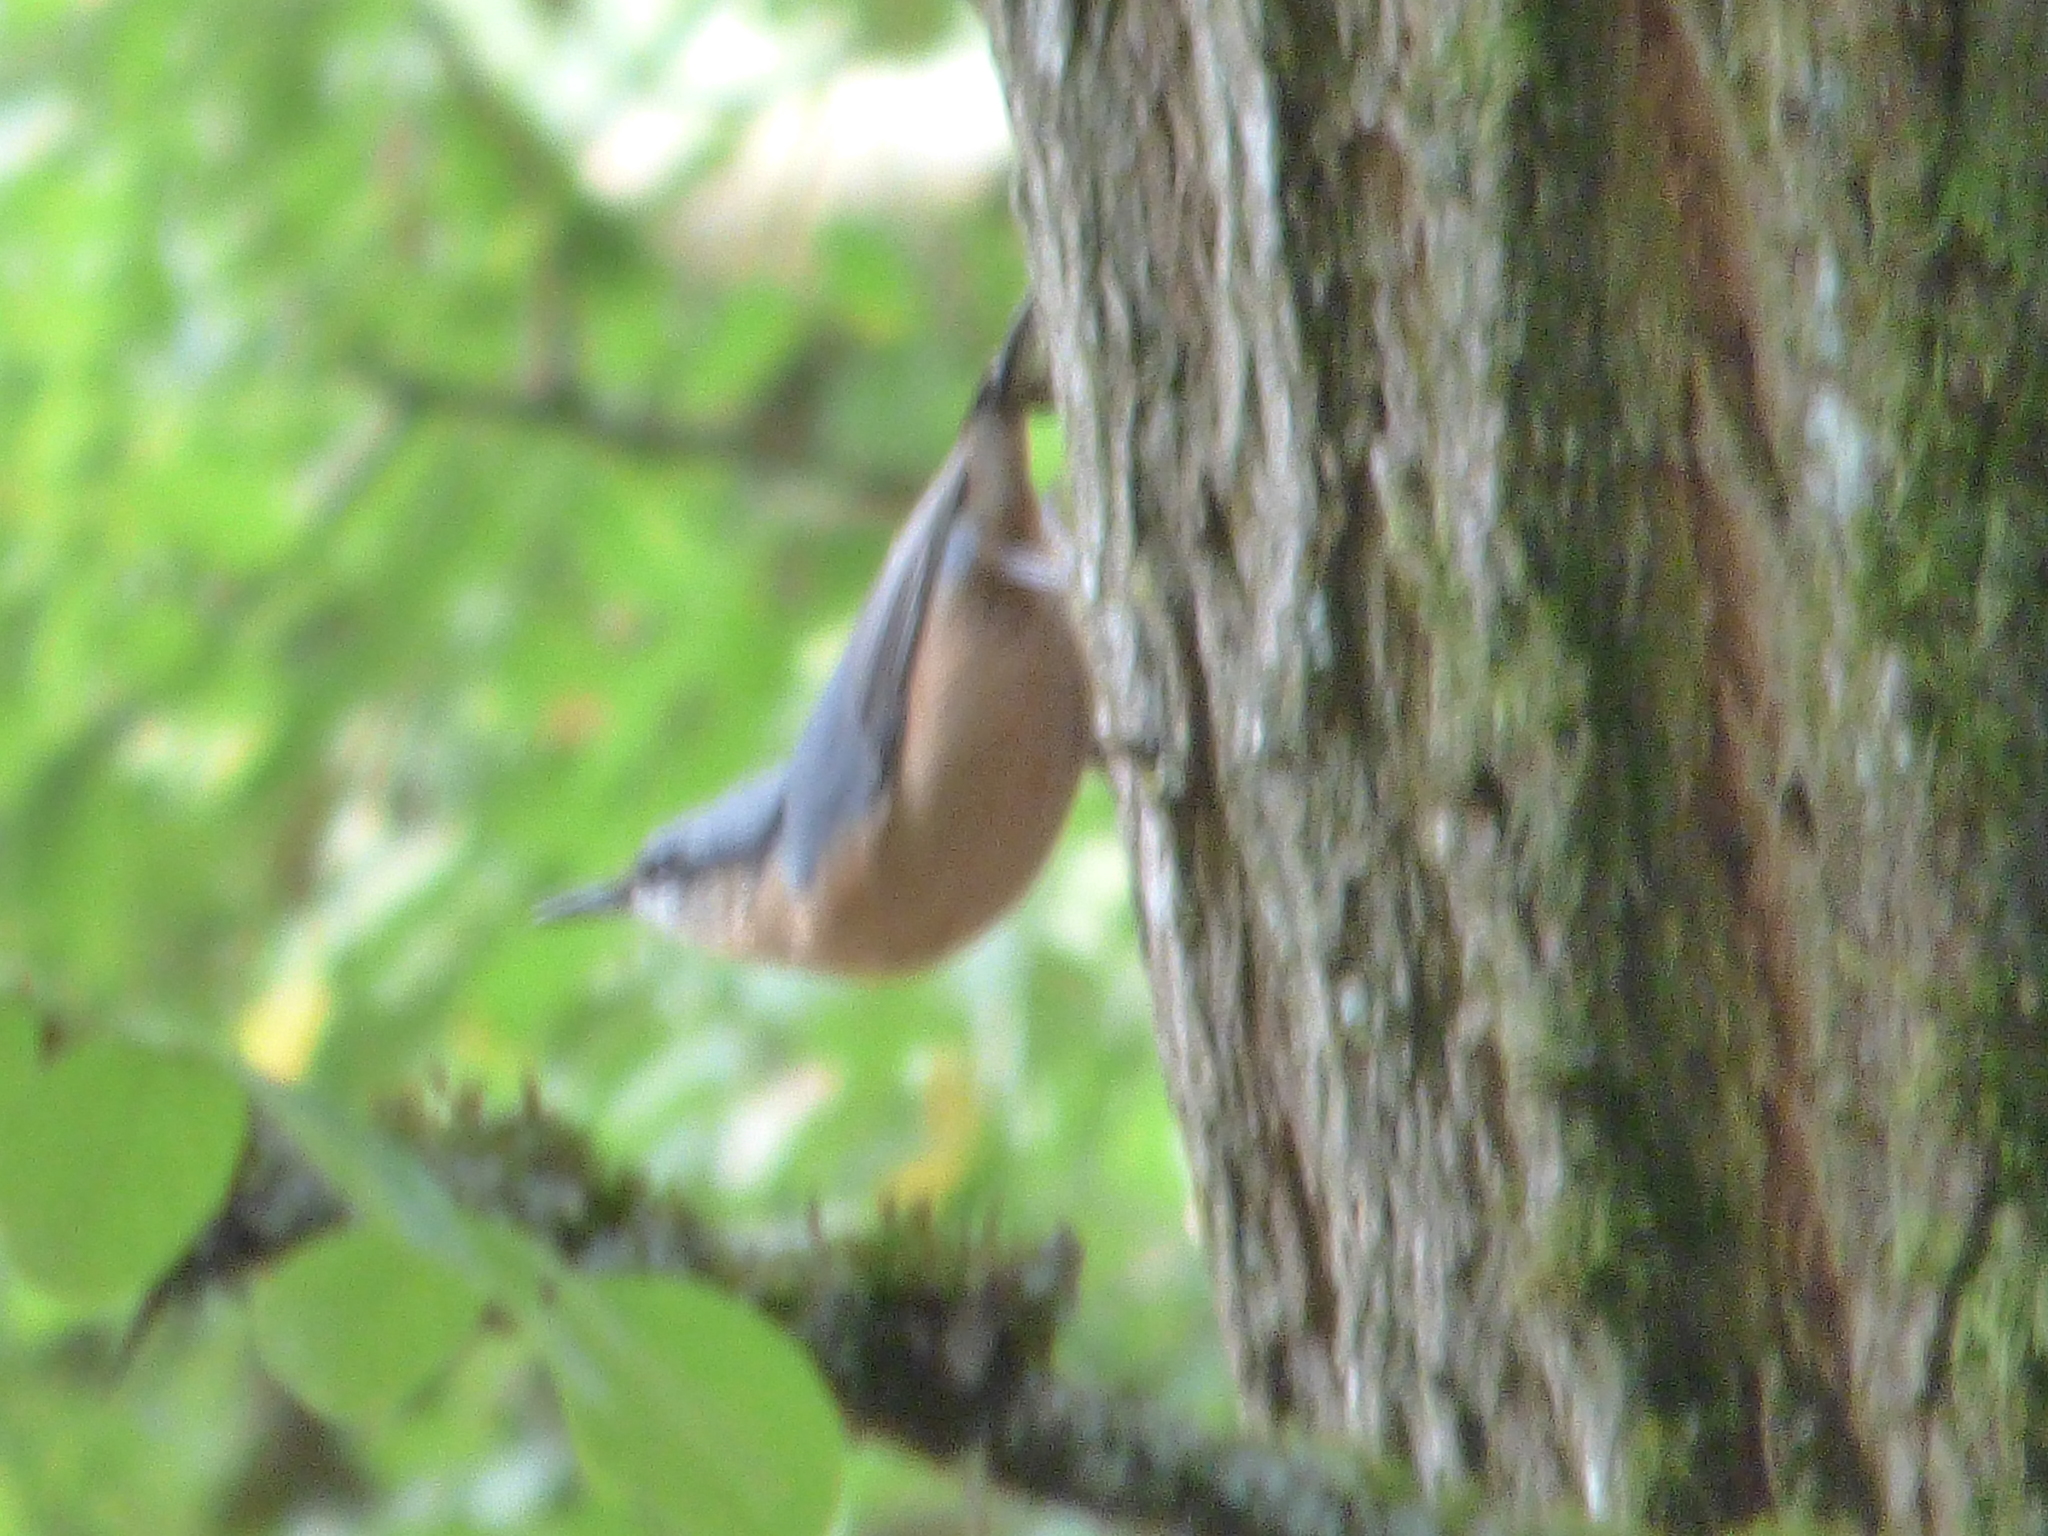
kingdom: Animalia
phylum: Chordata
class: Aves
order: Passeriformes
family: Sittidae
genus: Sitta
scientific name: Sitta europaea
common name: Eurasian nuthatch
